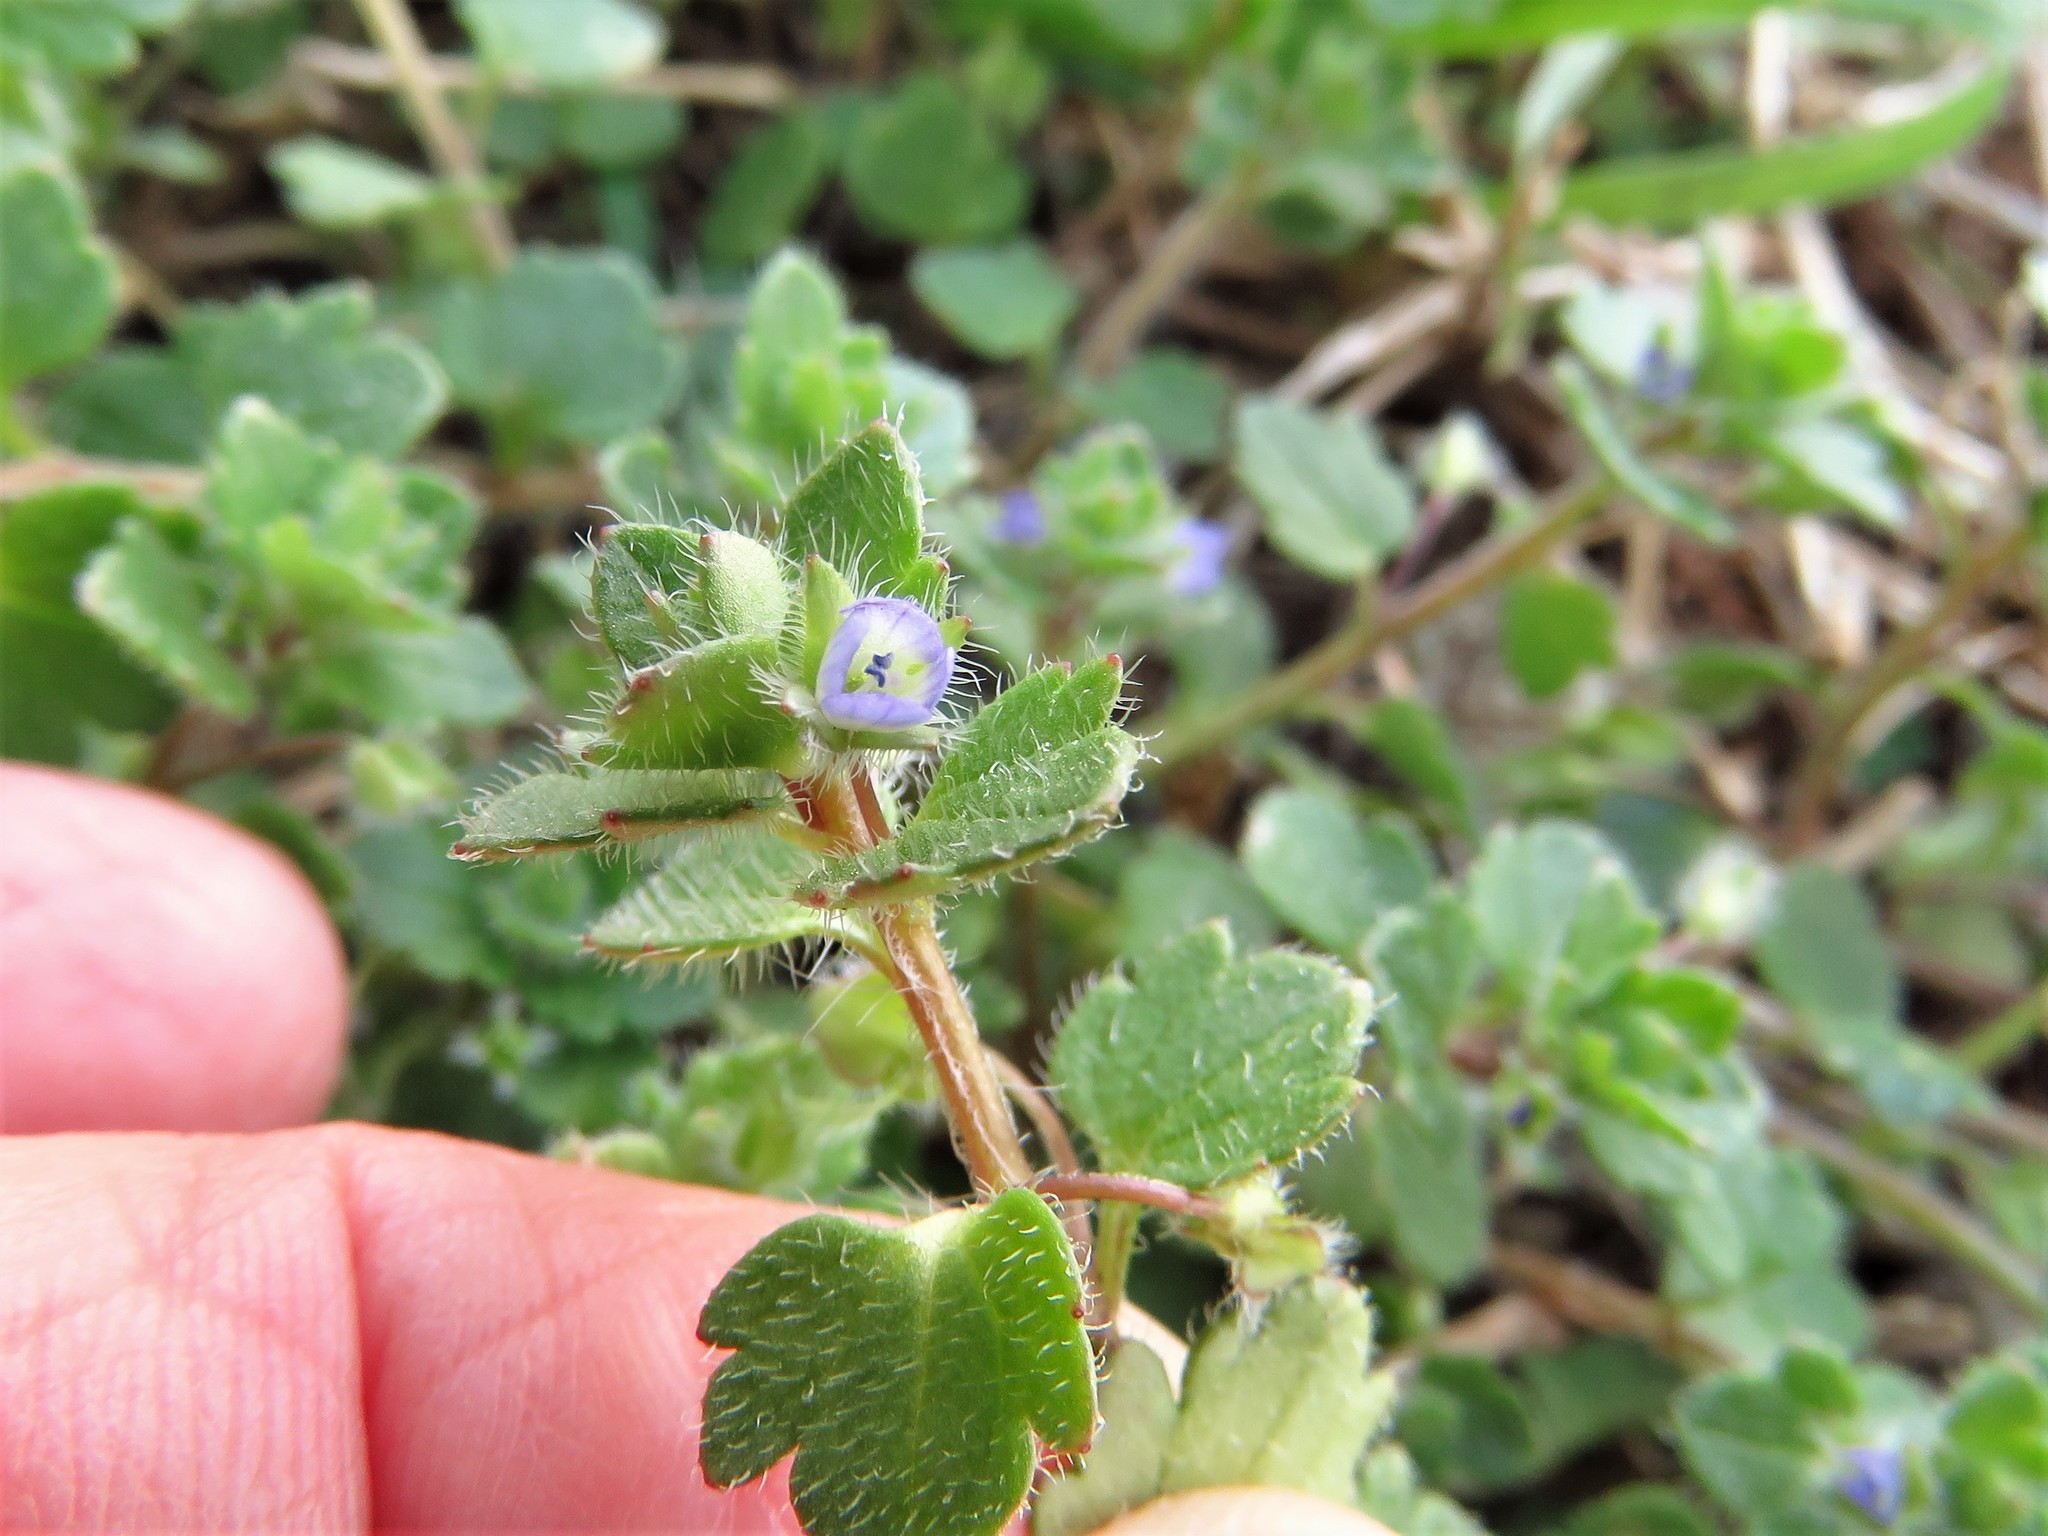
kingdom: Plantae
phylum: Tracheophyta
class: Magnoliopsida
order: Lamiales
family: Plantaginaceae
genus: Veronica
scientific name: Veronica hederifolia
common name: Ivy-leaved speedwell
